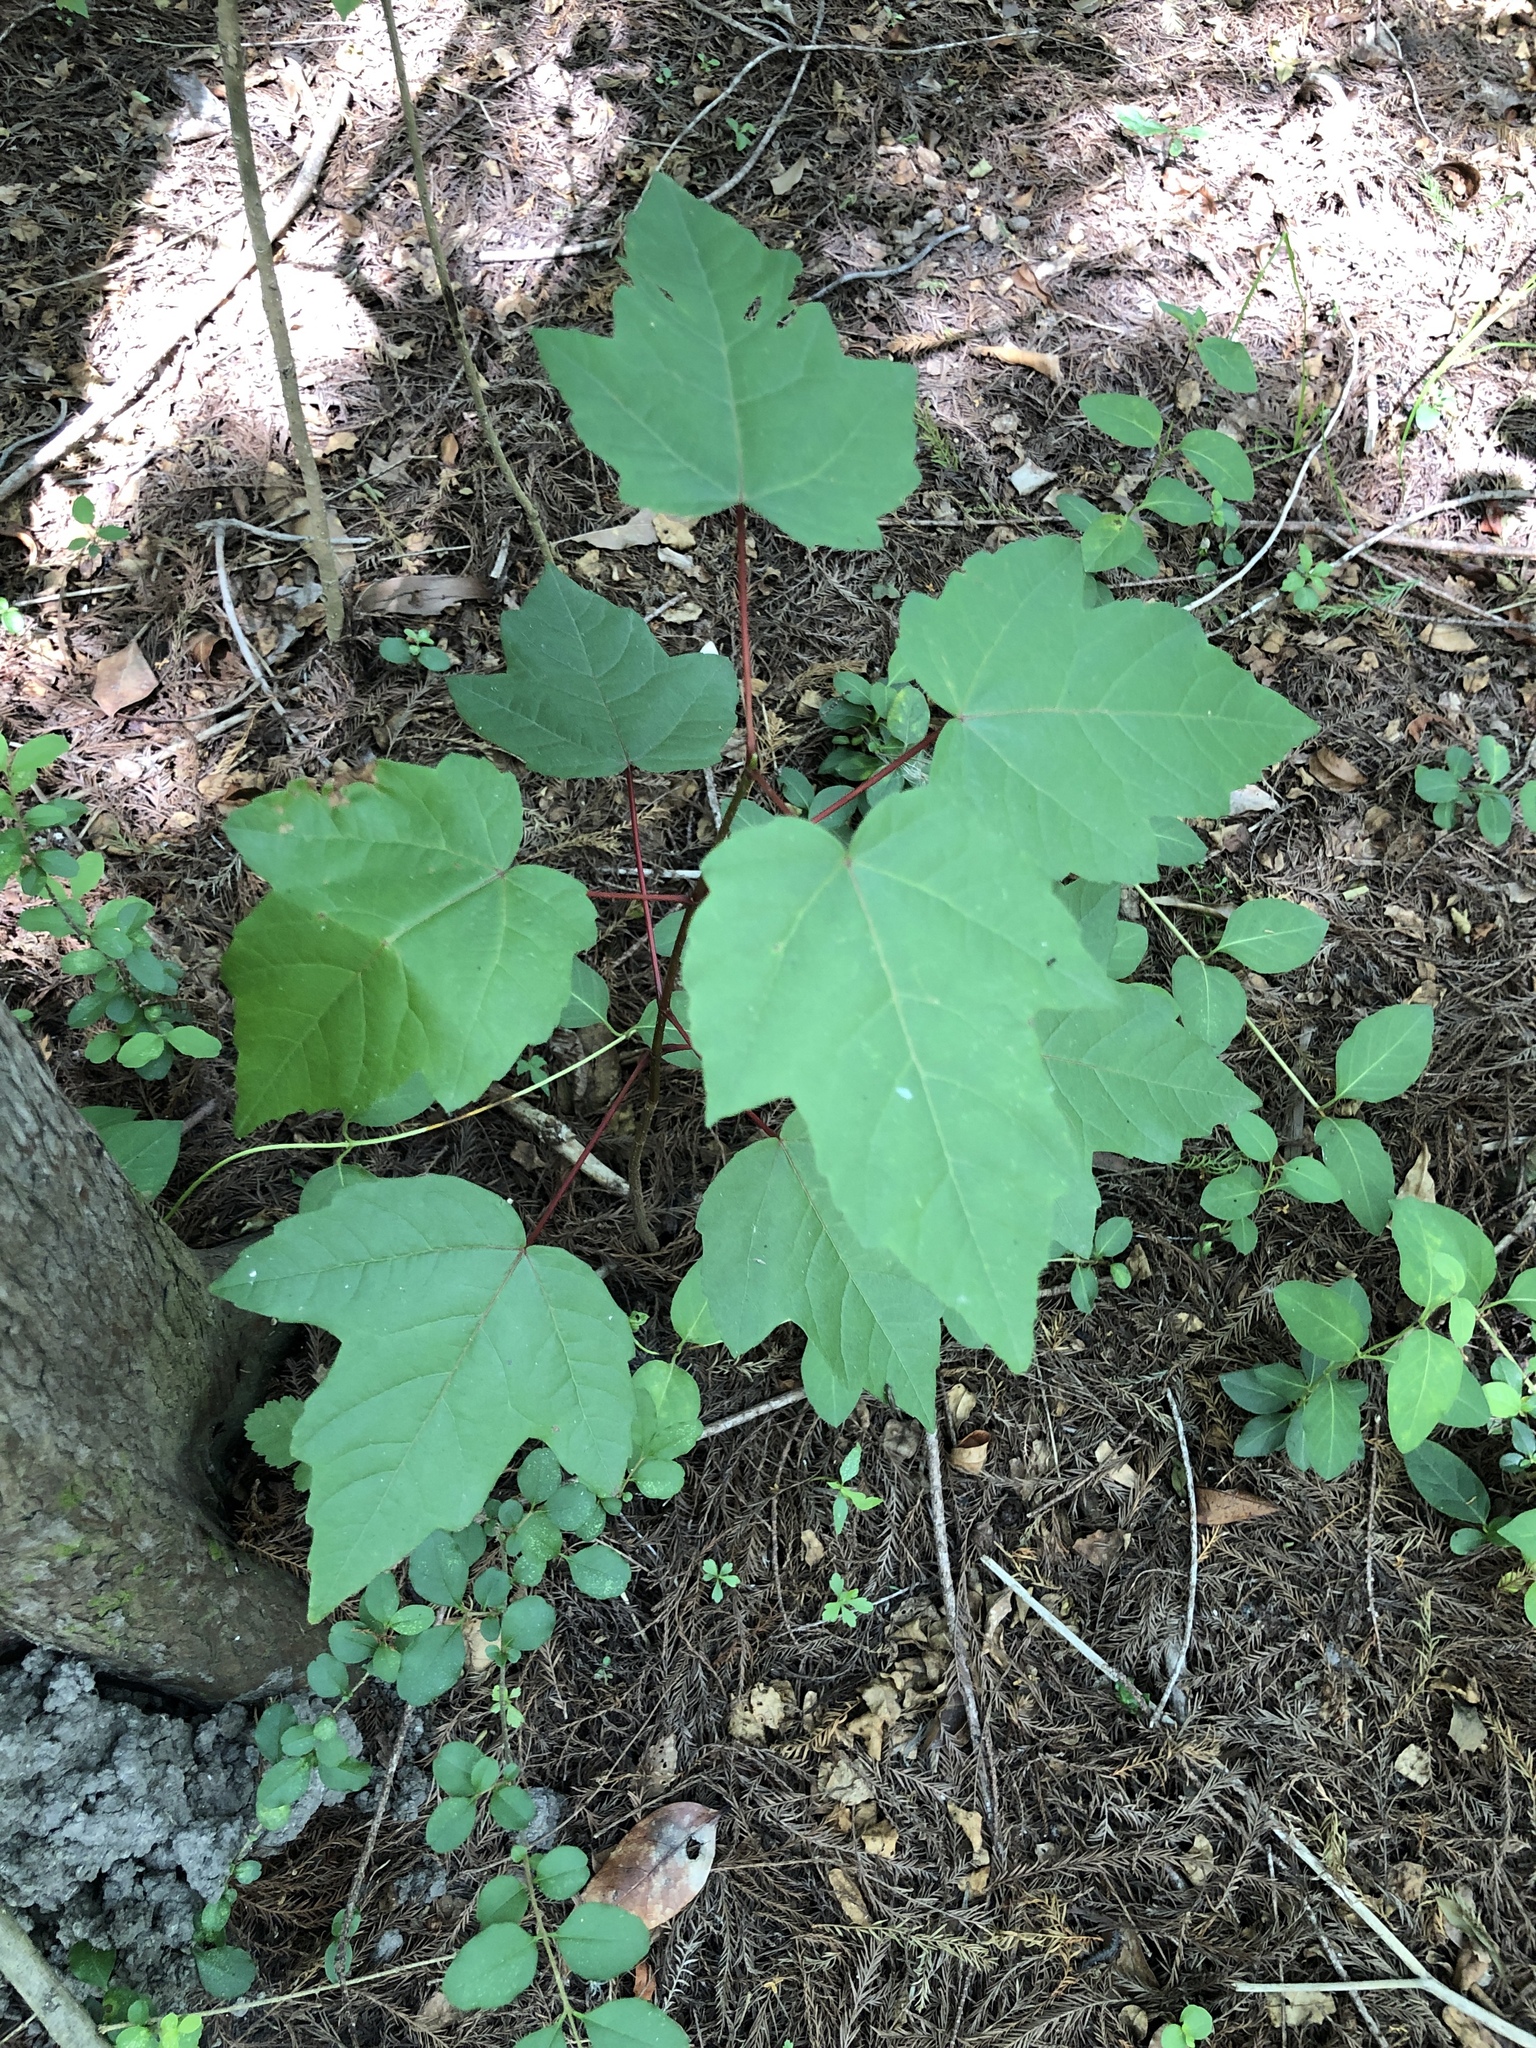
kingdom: Plantae
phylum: Tracheophyta
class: Magnoliopsida
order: Sapindales
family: Sapindaceae
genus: Acer
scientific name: Acer rubrum
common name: Red maple
